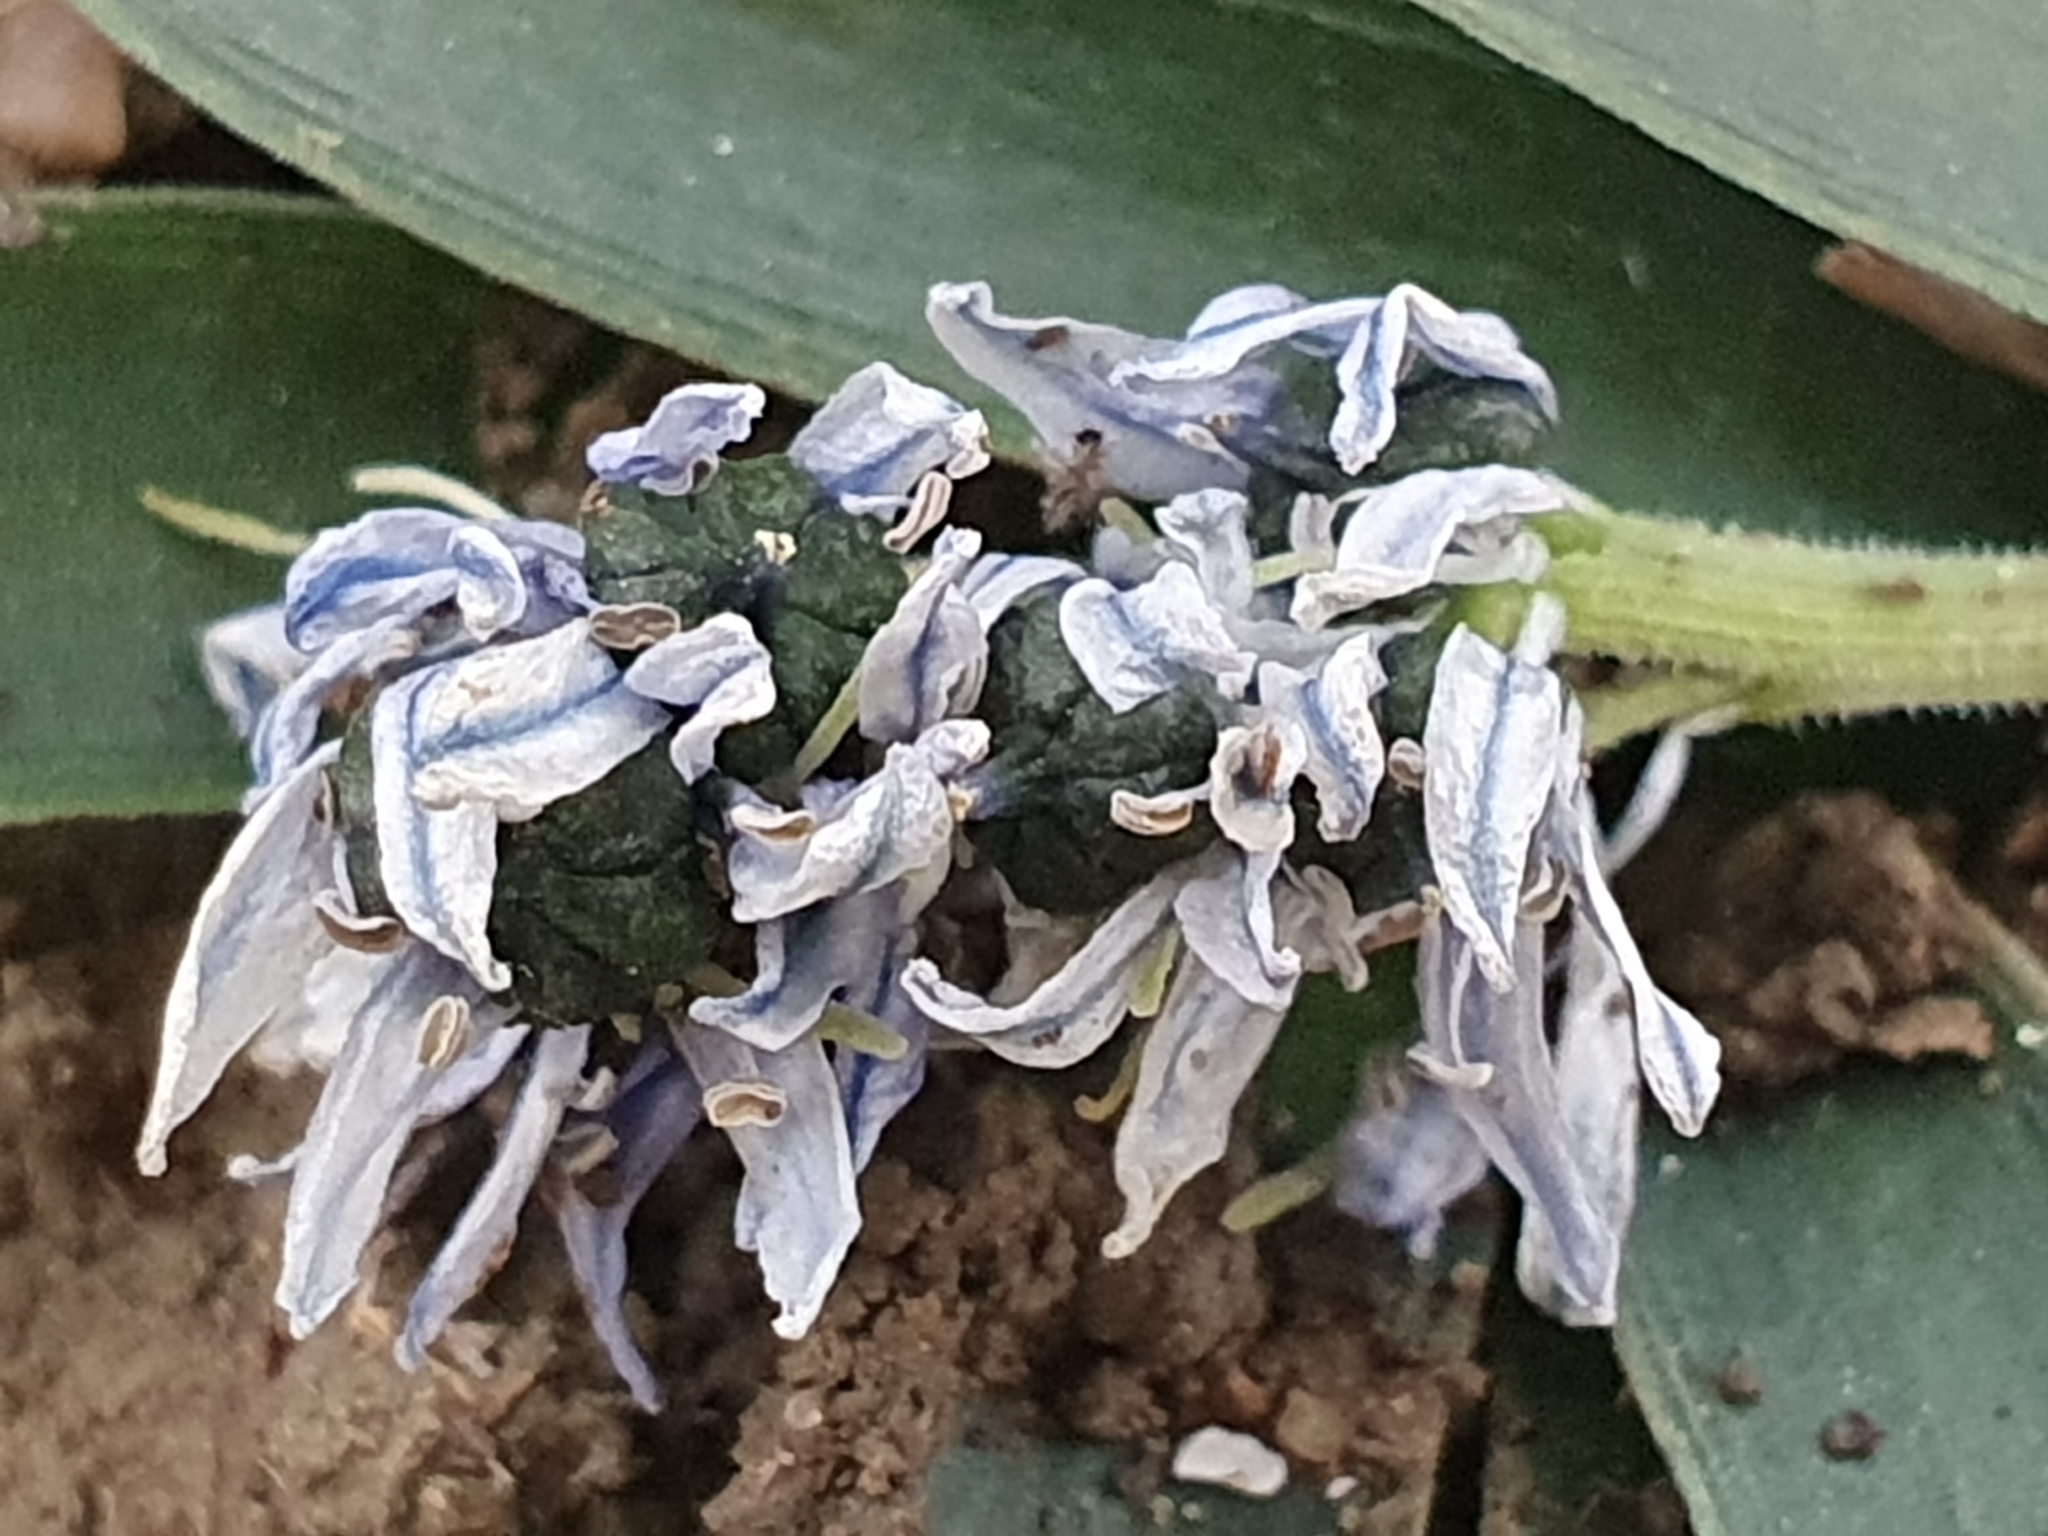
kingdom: Plantae
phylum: Tracheophyta
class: Liliopsida
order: Asparagales
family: Asparagaceae
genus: Hyacinthoides
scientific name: Hyacinthoides lingulata
